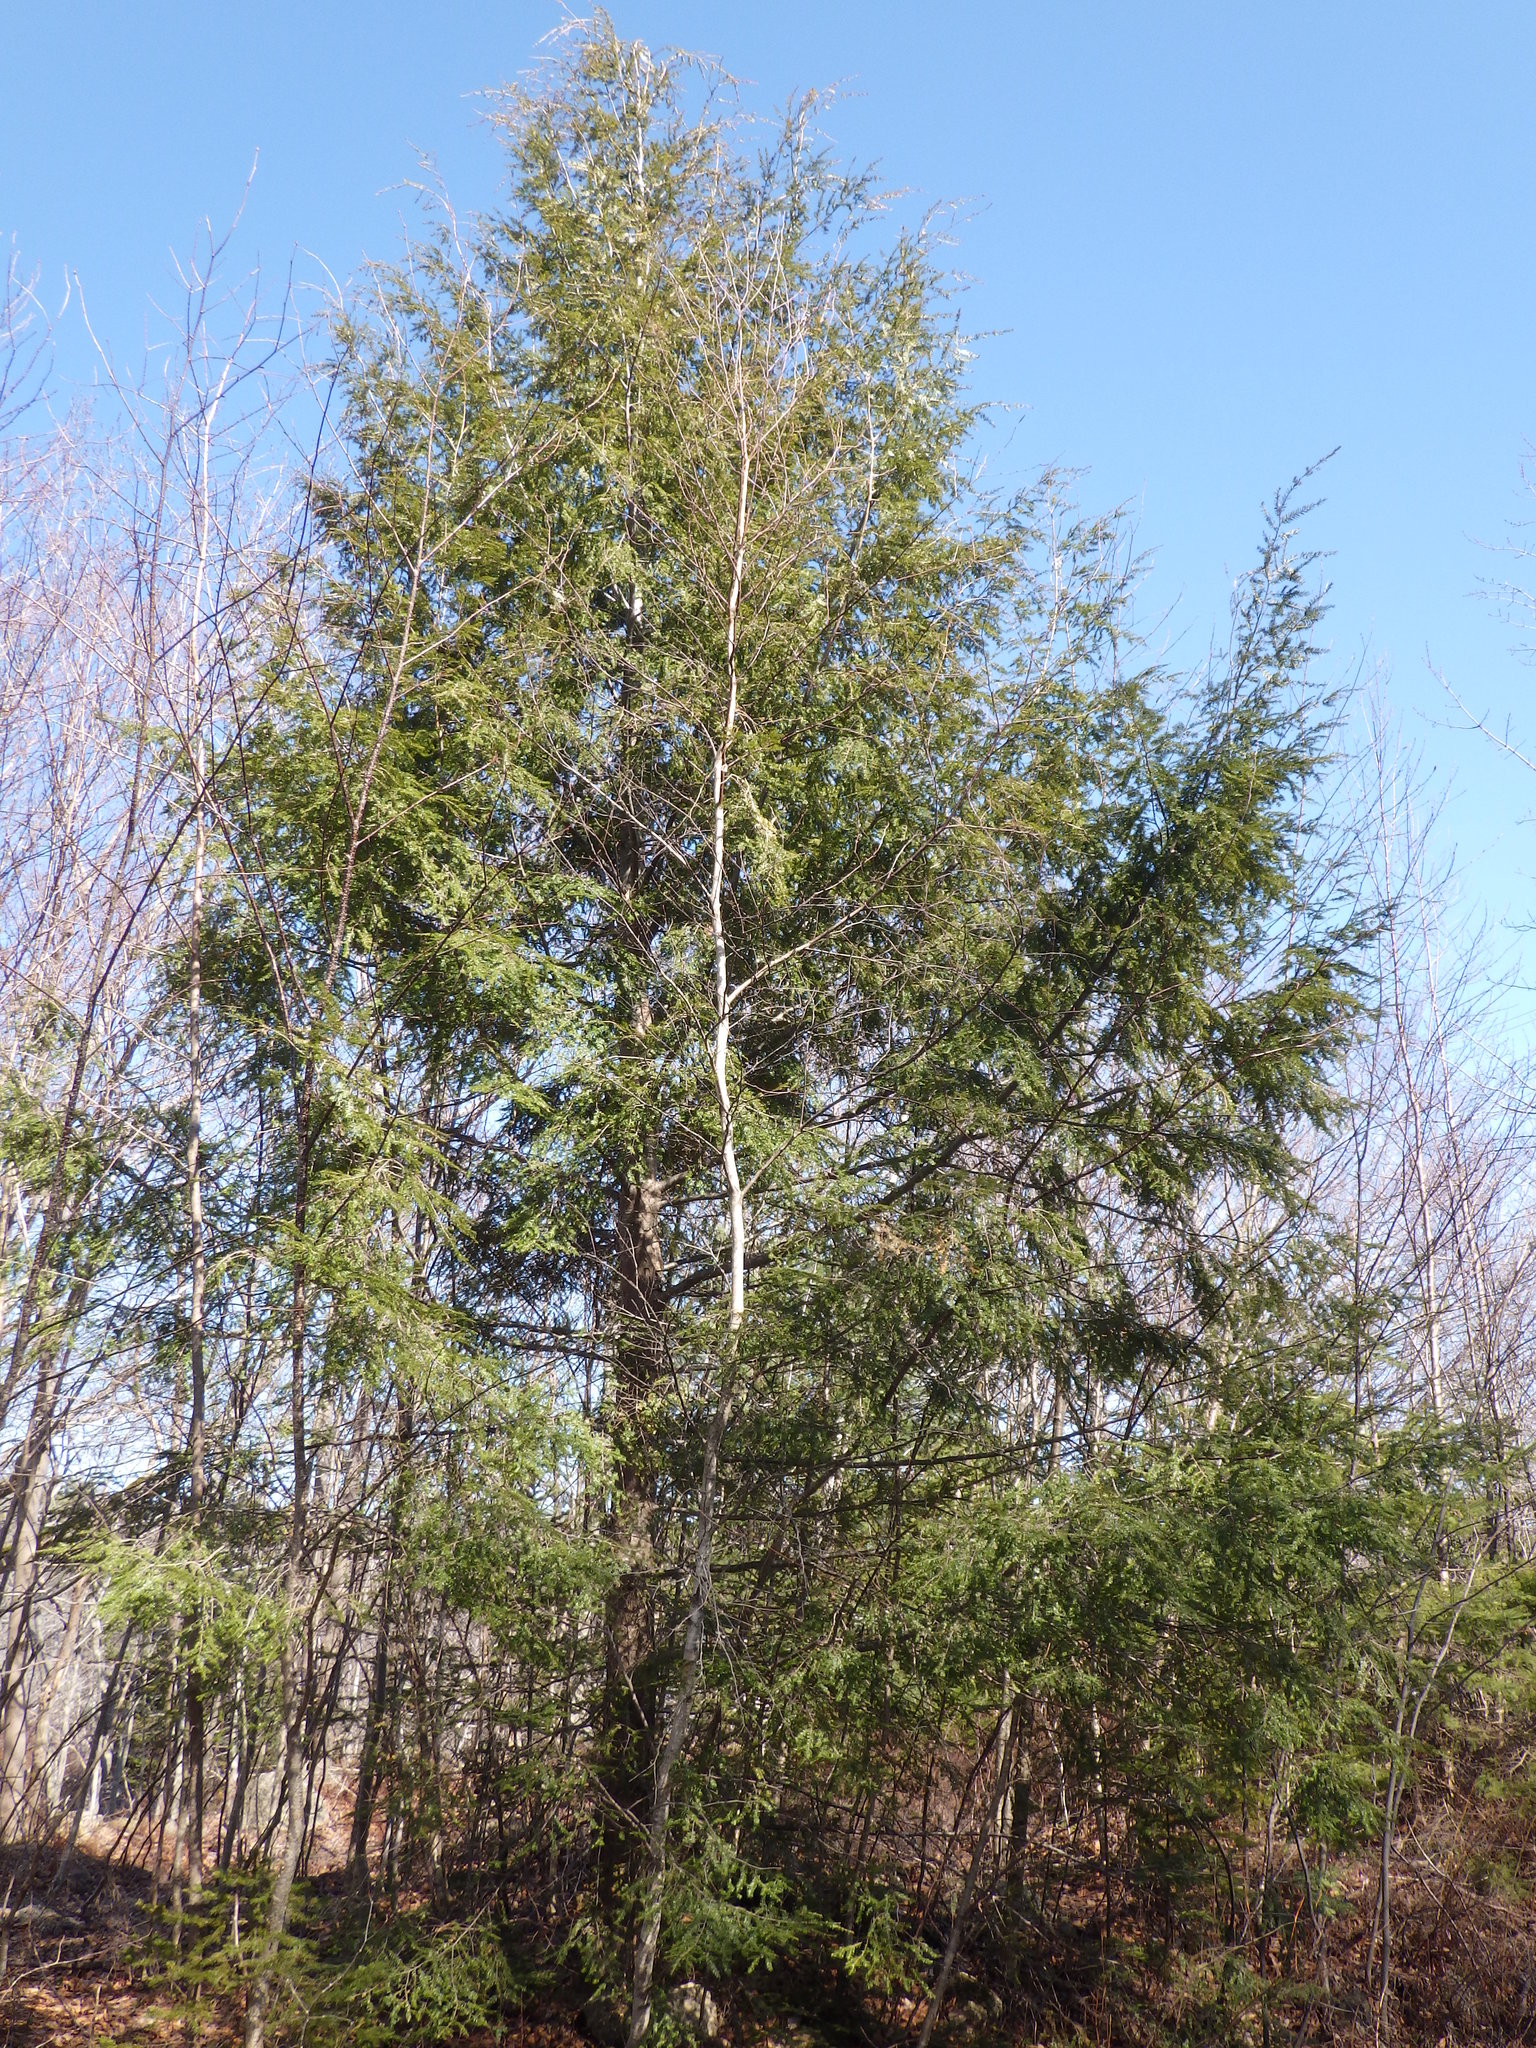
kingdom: Plantae
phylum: Tracheophyta
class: Pinopsida
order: Pinales
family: Pinaceae
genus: Tsuga
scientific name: Tsuga canadensis
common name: Eastern hemlock
